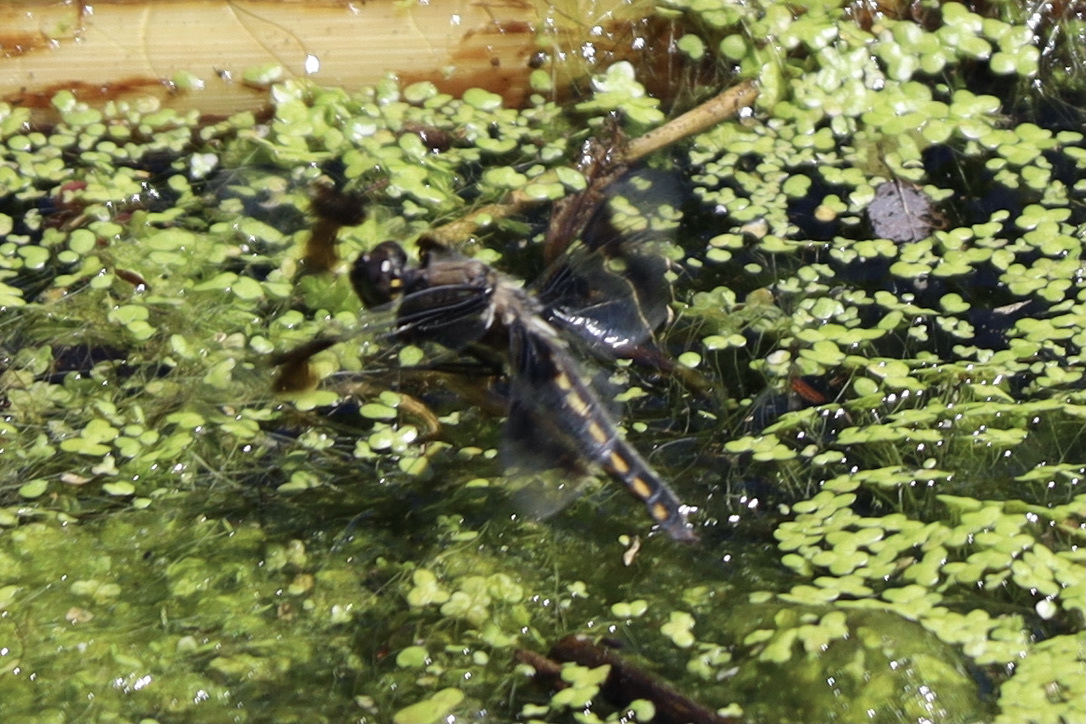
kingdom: Animalia
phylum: Arthropoda
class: Insecta
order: Odonata
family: Libellulidae
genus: Libellula
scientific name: Libellula forensis
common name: Eight-spotted skimmer
